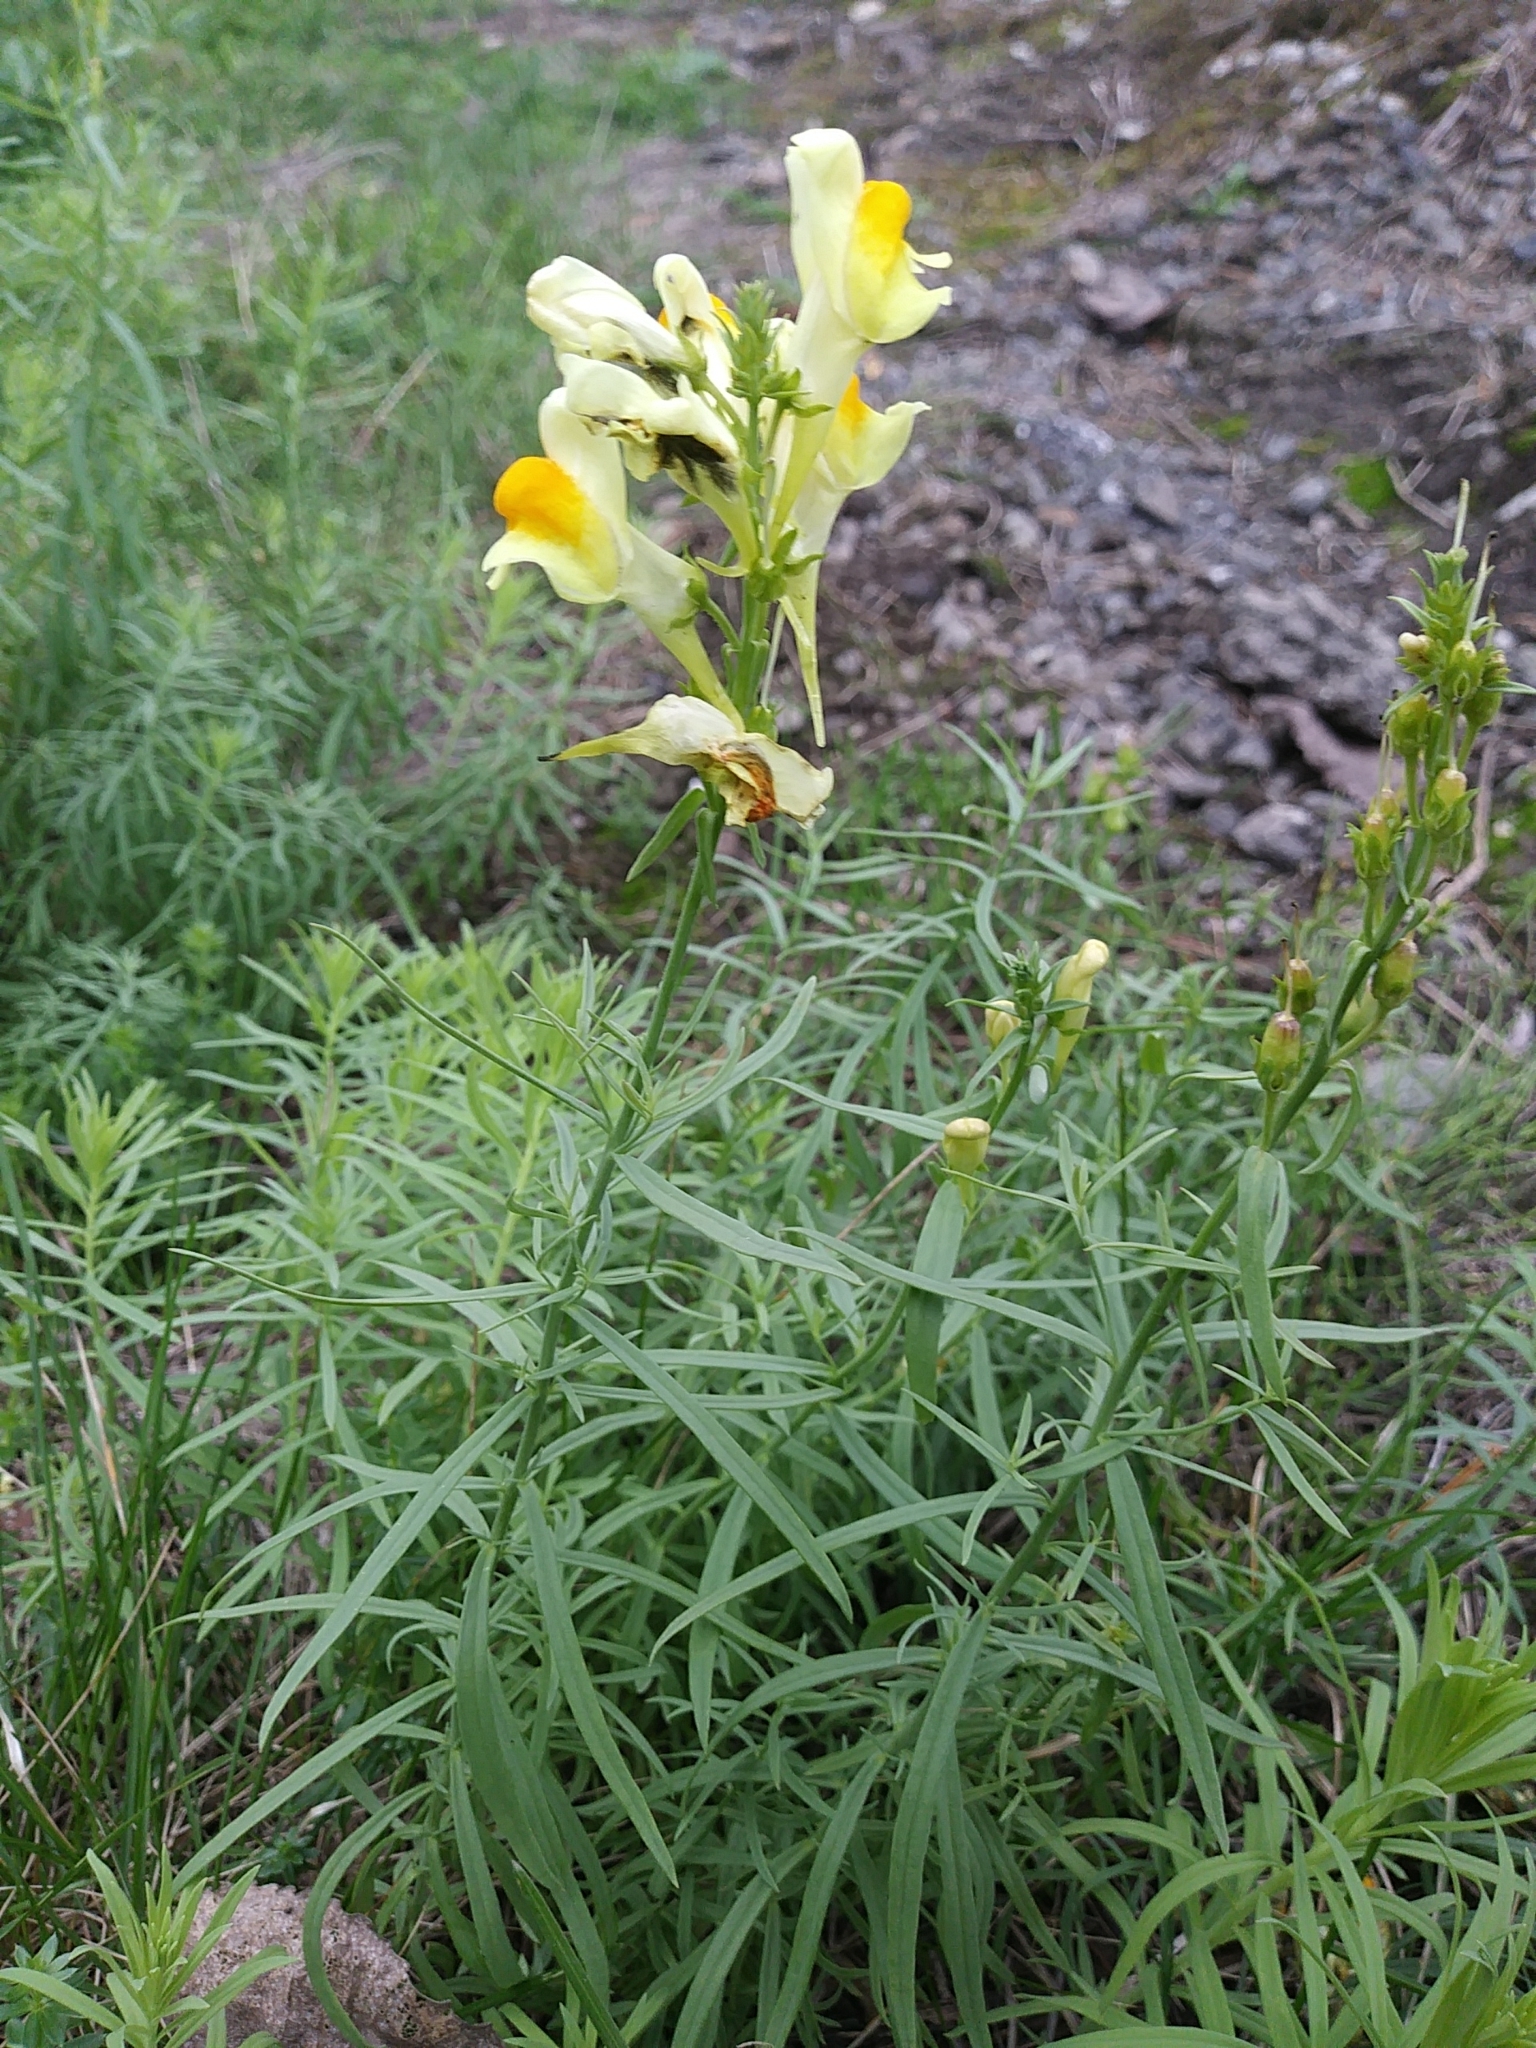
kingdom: Plantae
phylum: Tracheophyta
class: Magnoliopsida
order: Lamiales
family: Plantaginaceae
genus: Linaria
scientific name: Linaria vulgaris
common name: Butter and eggs
